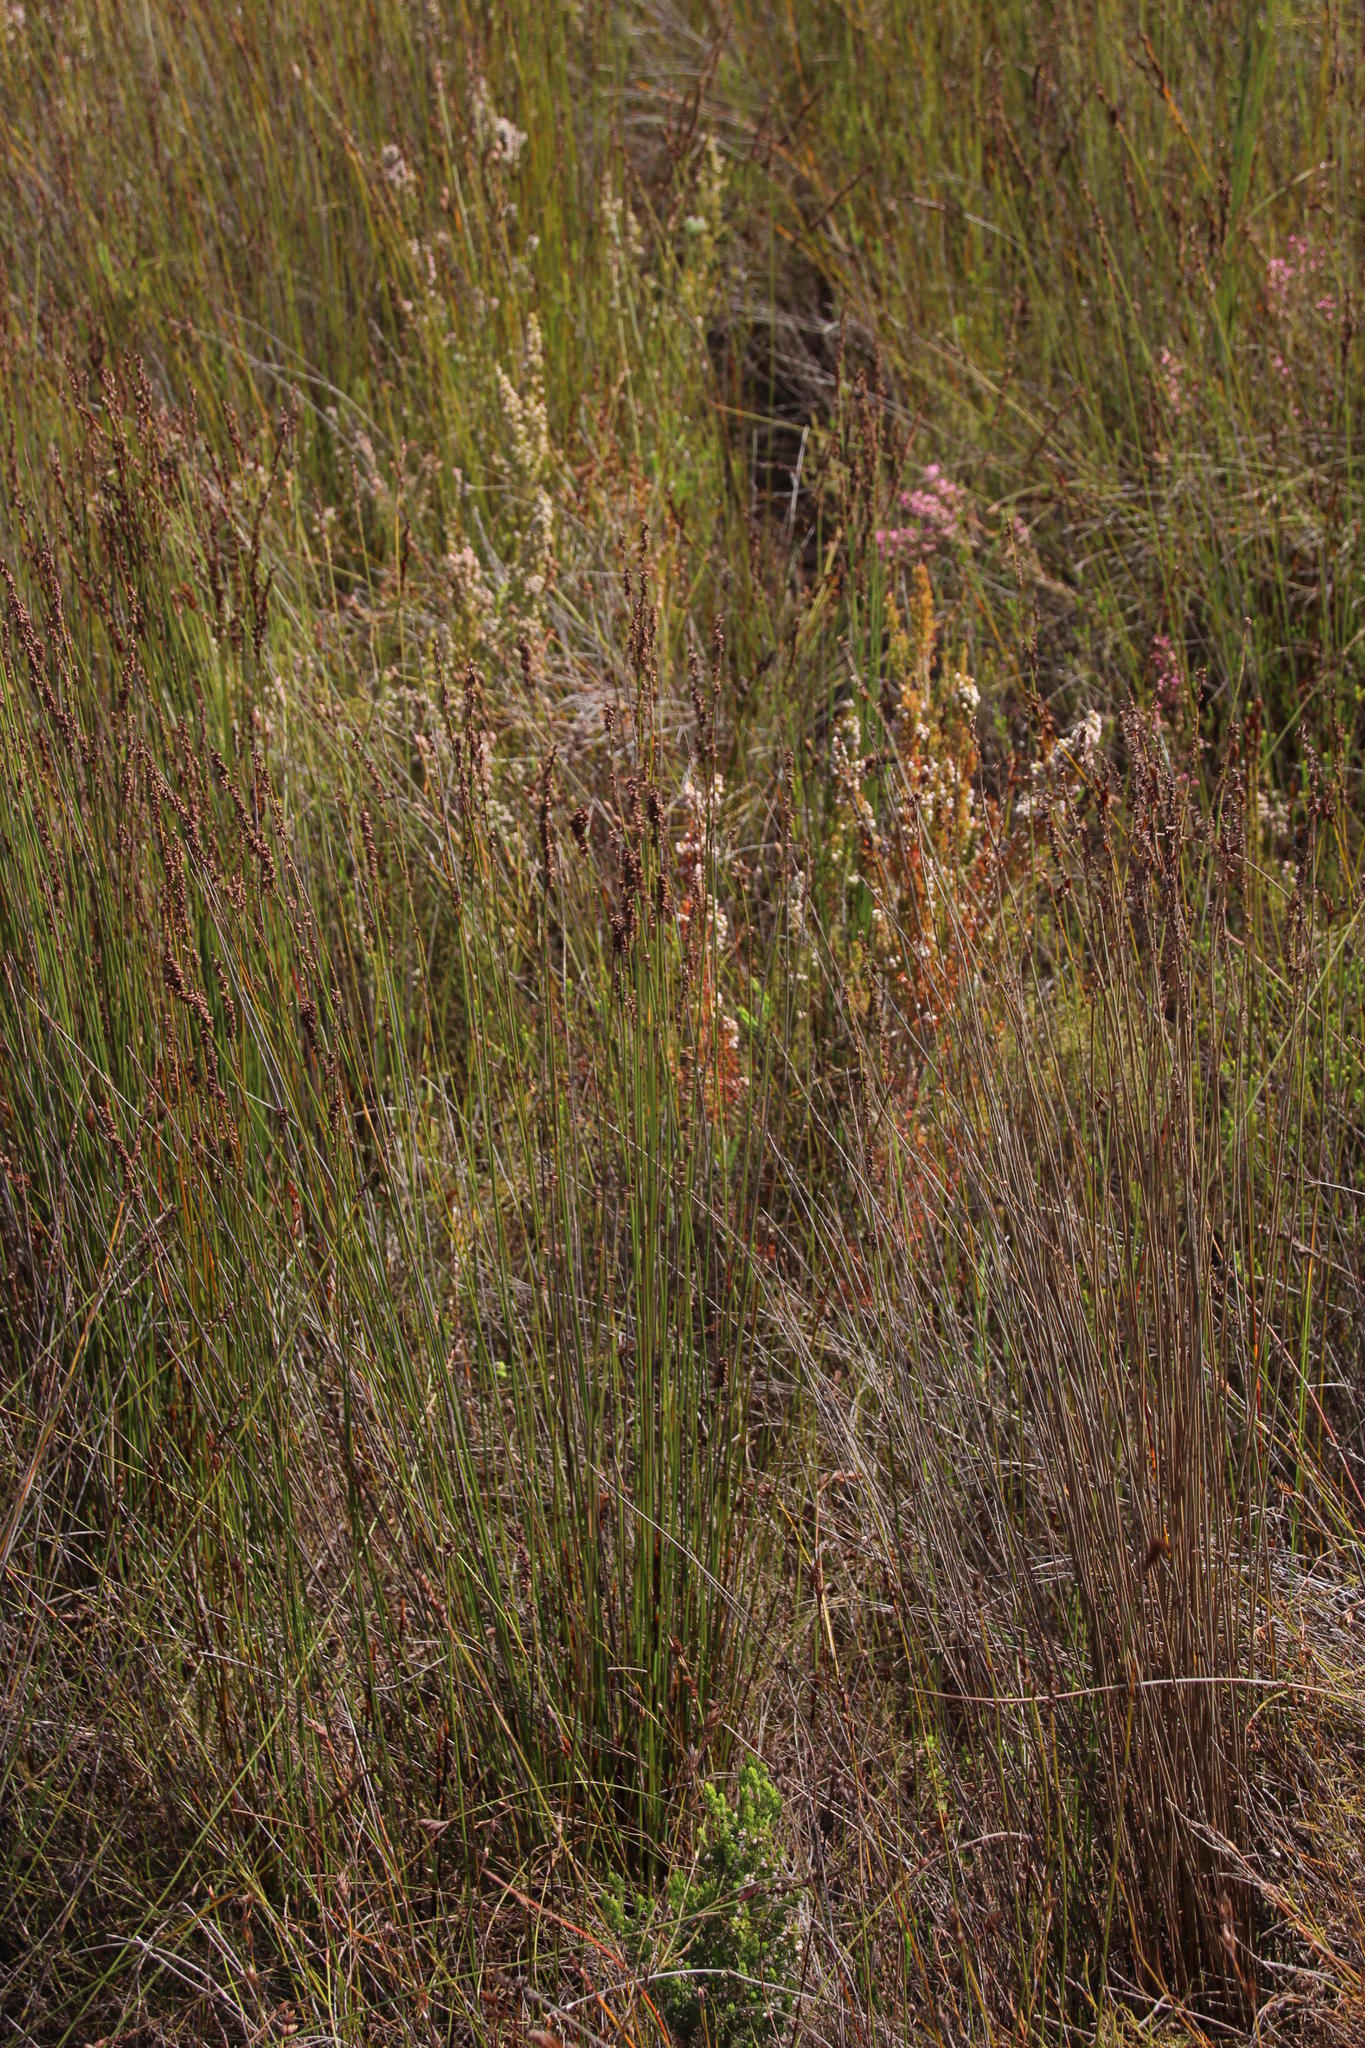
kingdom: Plantae
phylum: Tracheophyta
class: Liliopsida
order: Poales
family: Restionaceae
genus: Elegia
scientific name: Elegia hookeriana
